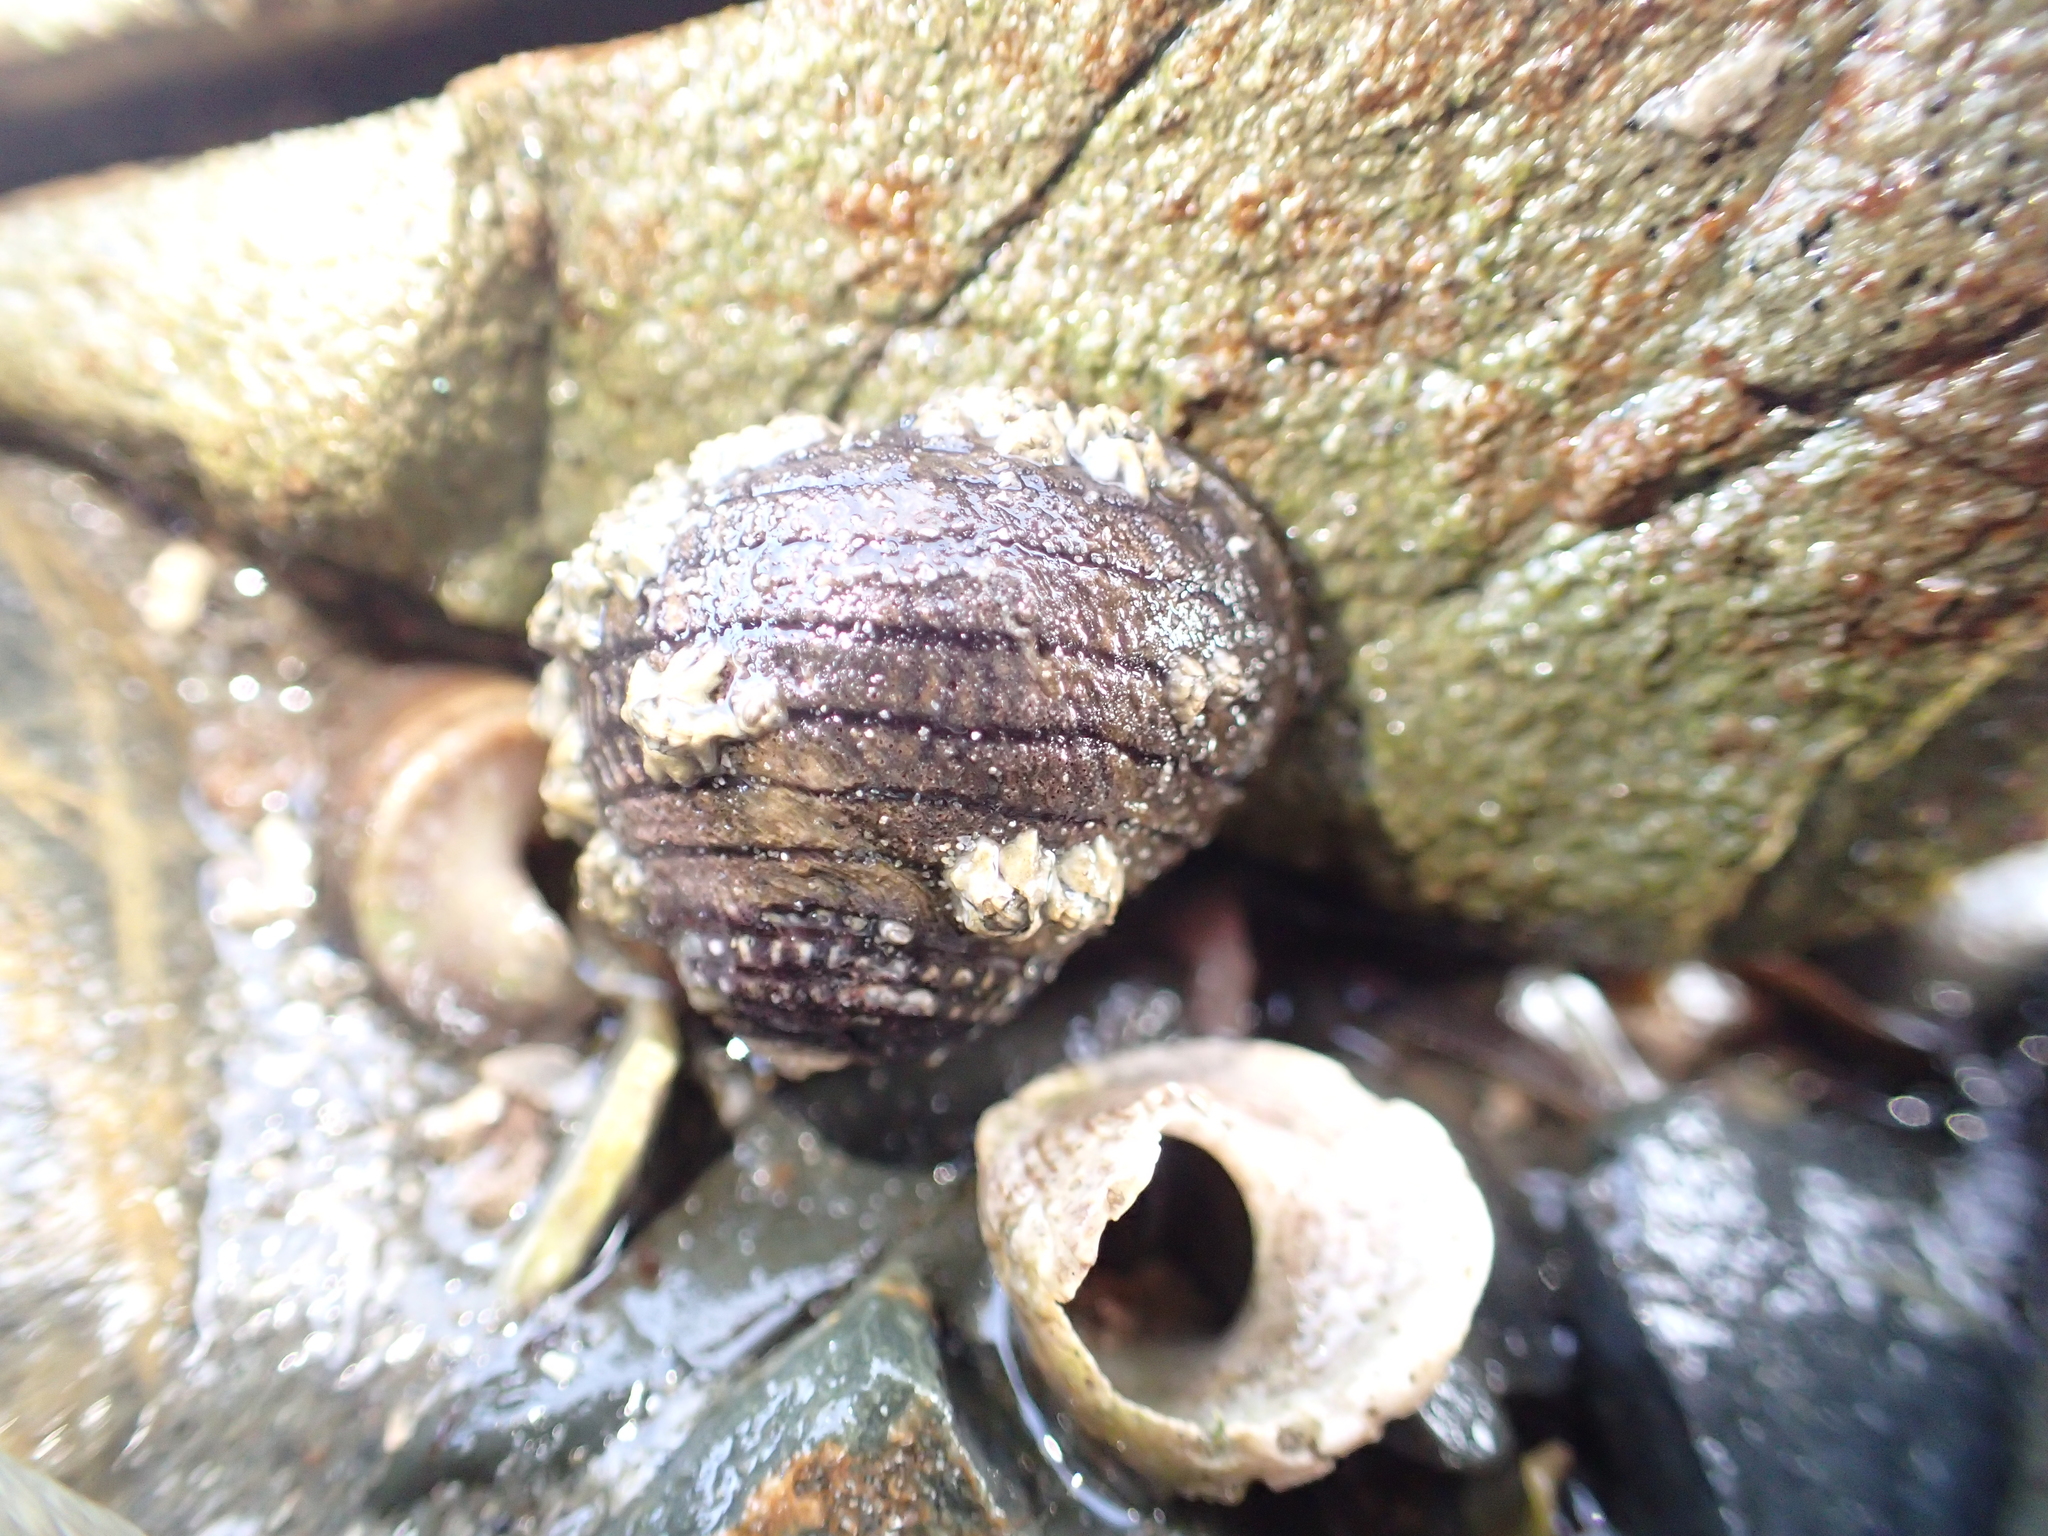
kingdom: Animalia
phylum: Mollusca
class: Gastropoda
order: Trochida
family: Trochidae
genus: Diloma
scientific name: Diloma aethiops
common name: Scorched monodont
